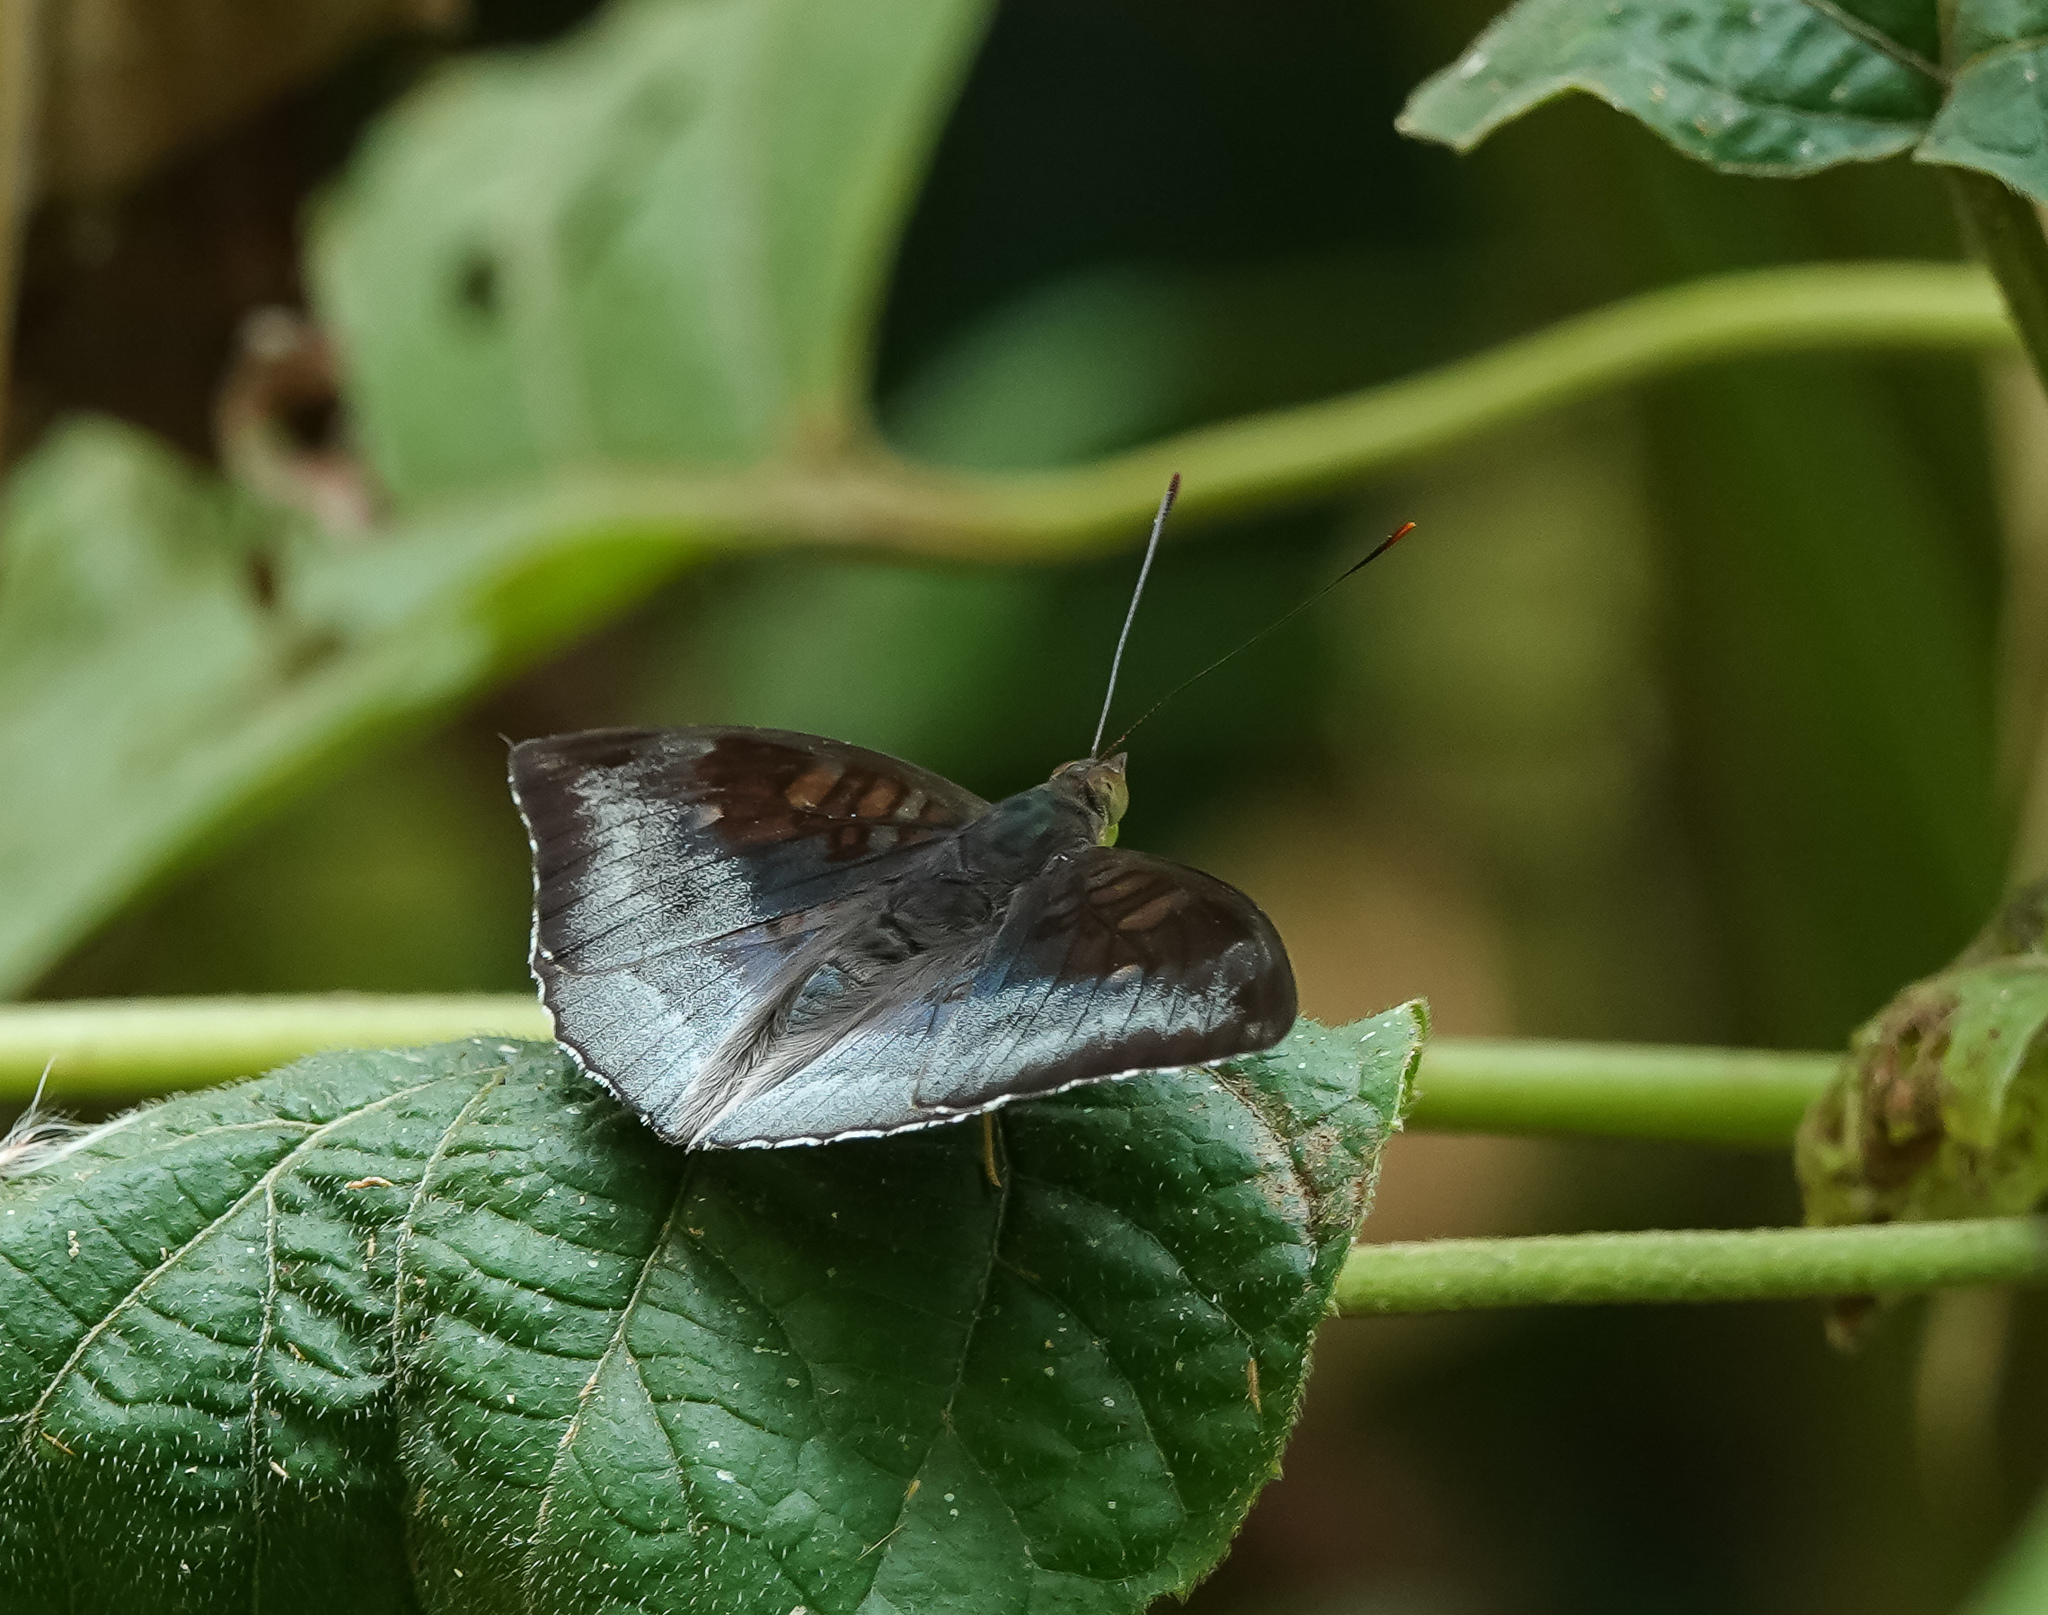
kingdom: Animalia
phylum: Arthropoda
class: Insecta
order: Lepidoptera
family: Nymphalidae
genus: Euthalia
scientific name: Euthalia monina
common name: Powdered baron
